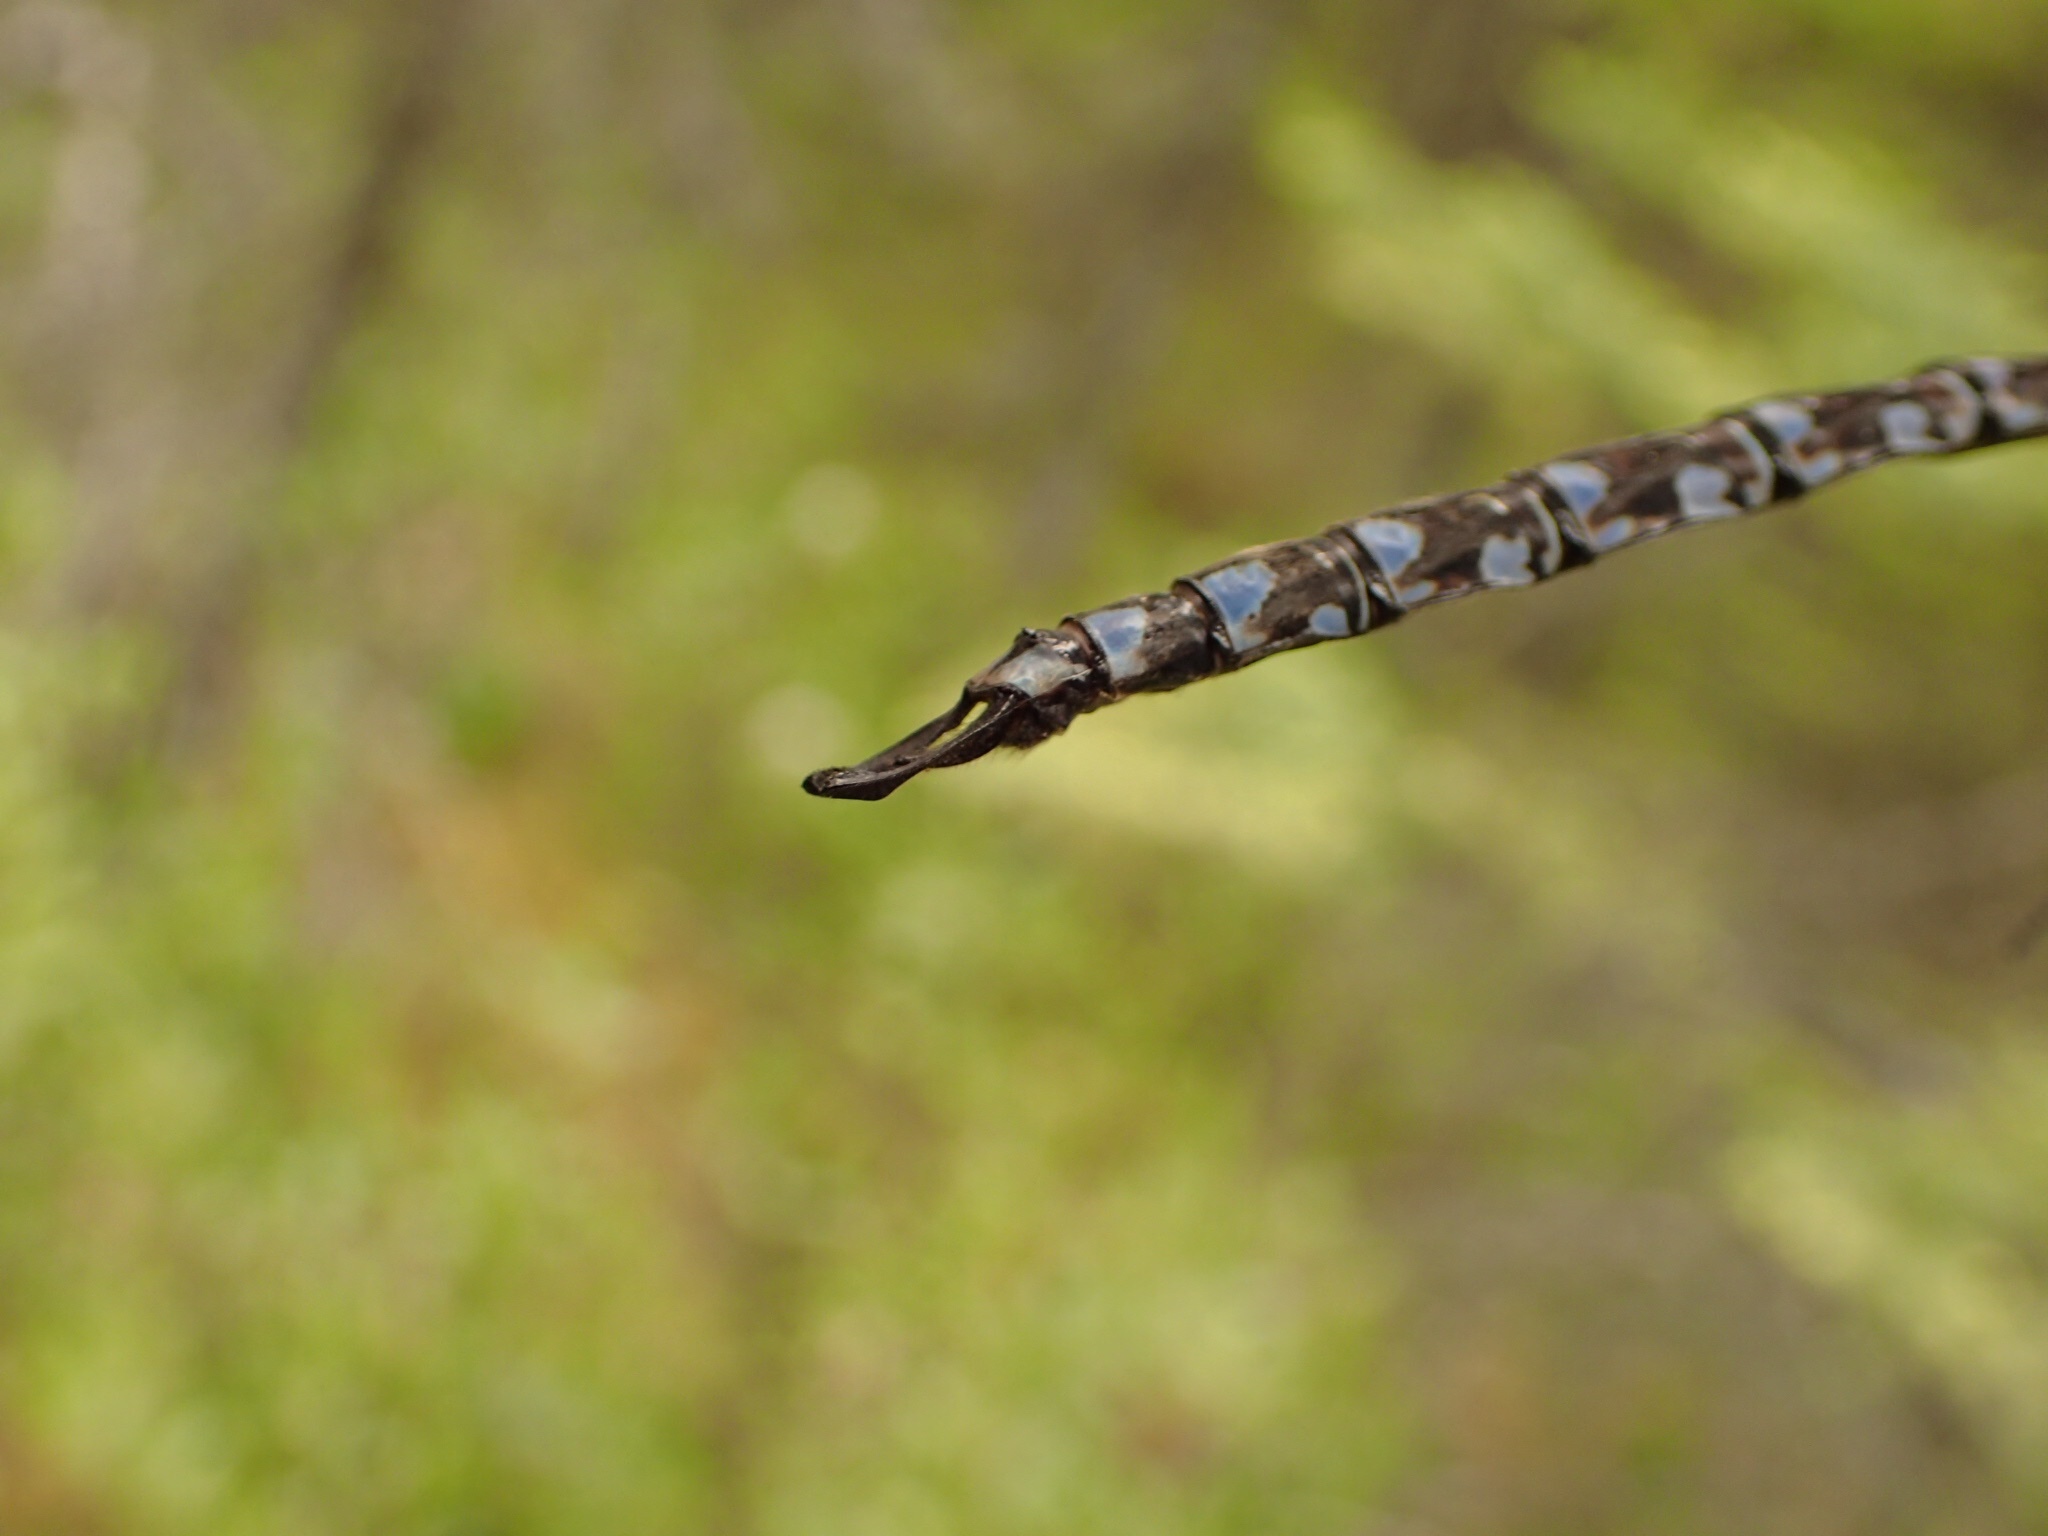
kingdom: Animalia
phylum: Arthropoda
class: Insecta
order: Odonata
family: Aeshnidae
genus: Aeshna
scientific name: Aeshna eremita
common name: Lake darner
